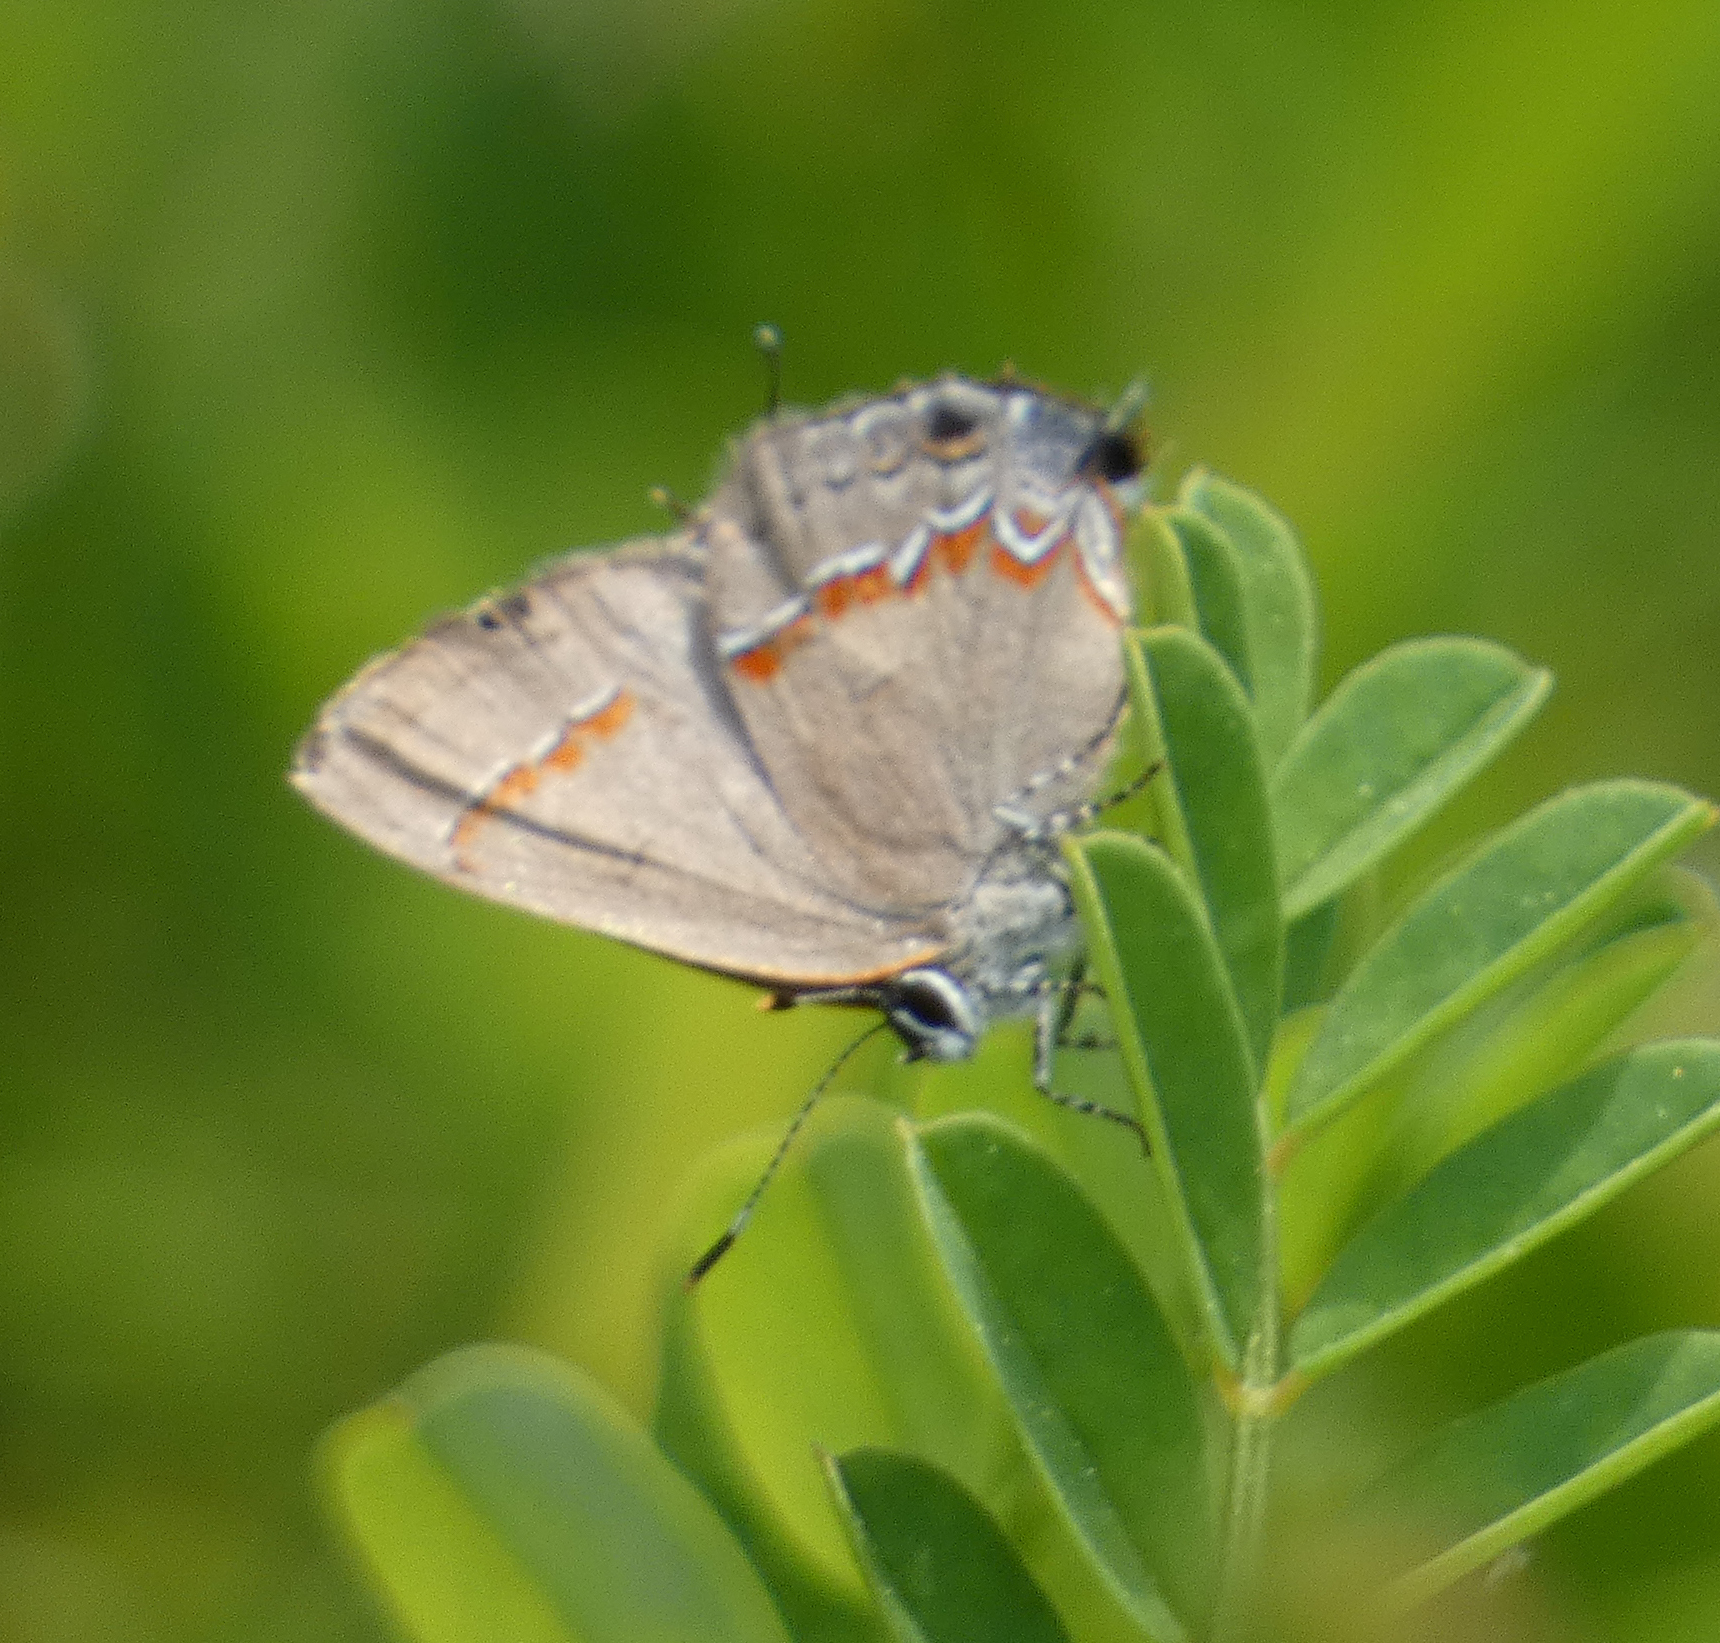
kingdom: Animalia
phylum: Arthropoda
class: Insecta
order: Lepidoptera
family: Lycaenidae
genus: Calycopis
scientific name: Calycopis cecrops
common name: Red-banded hairstreak
